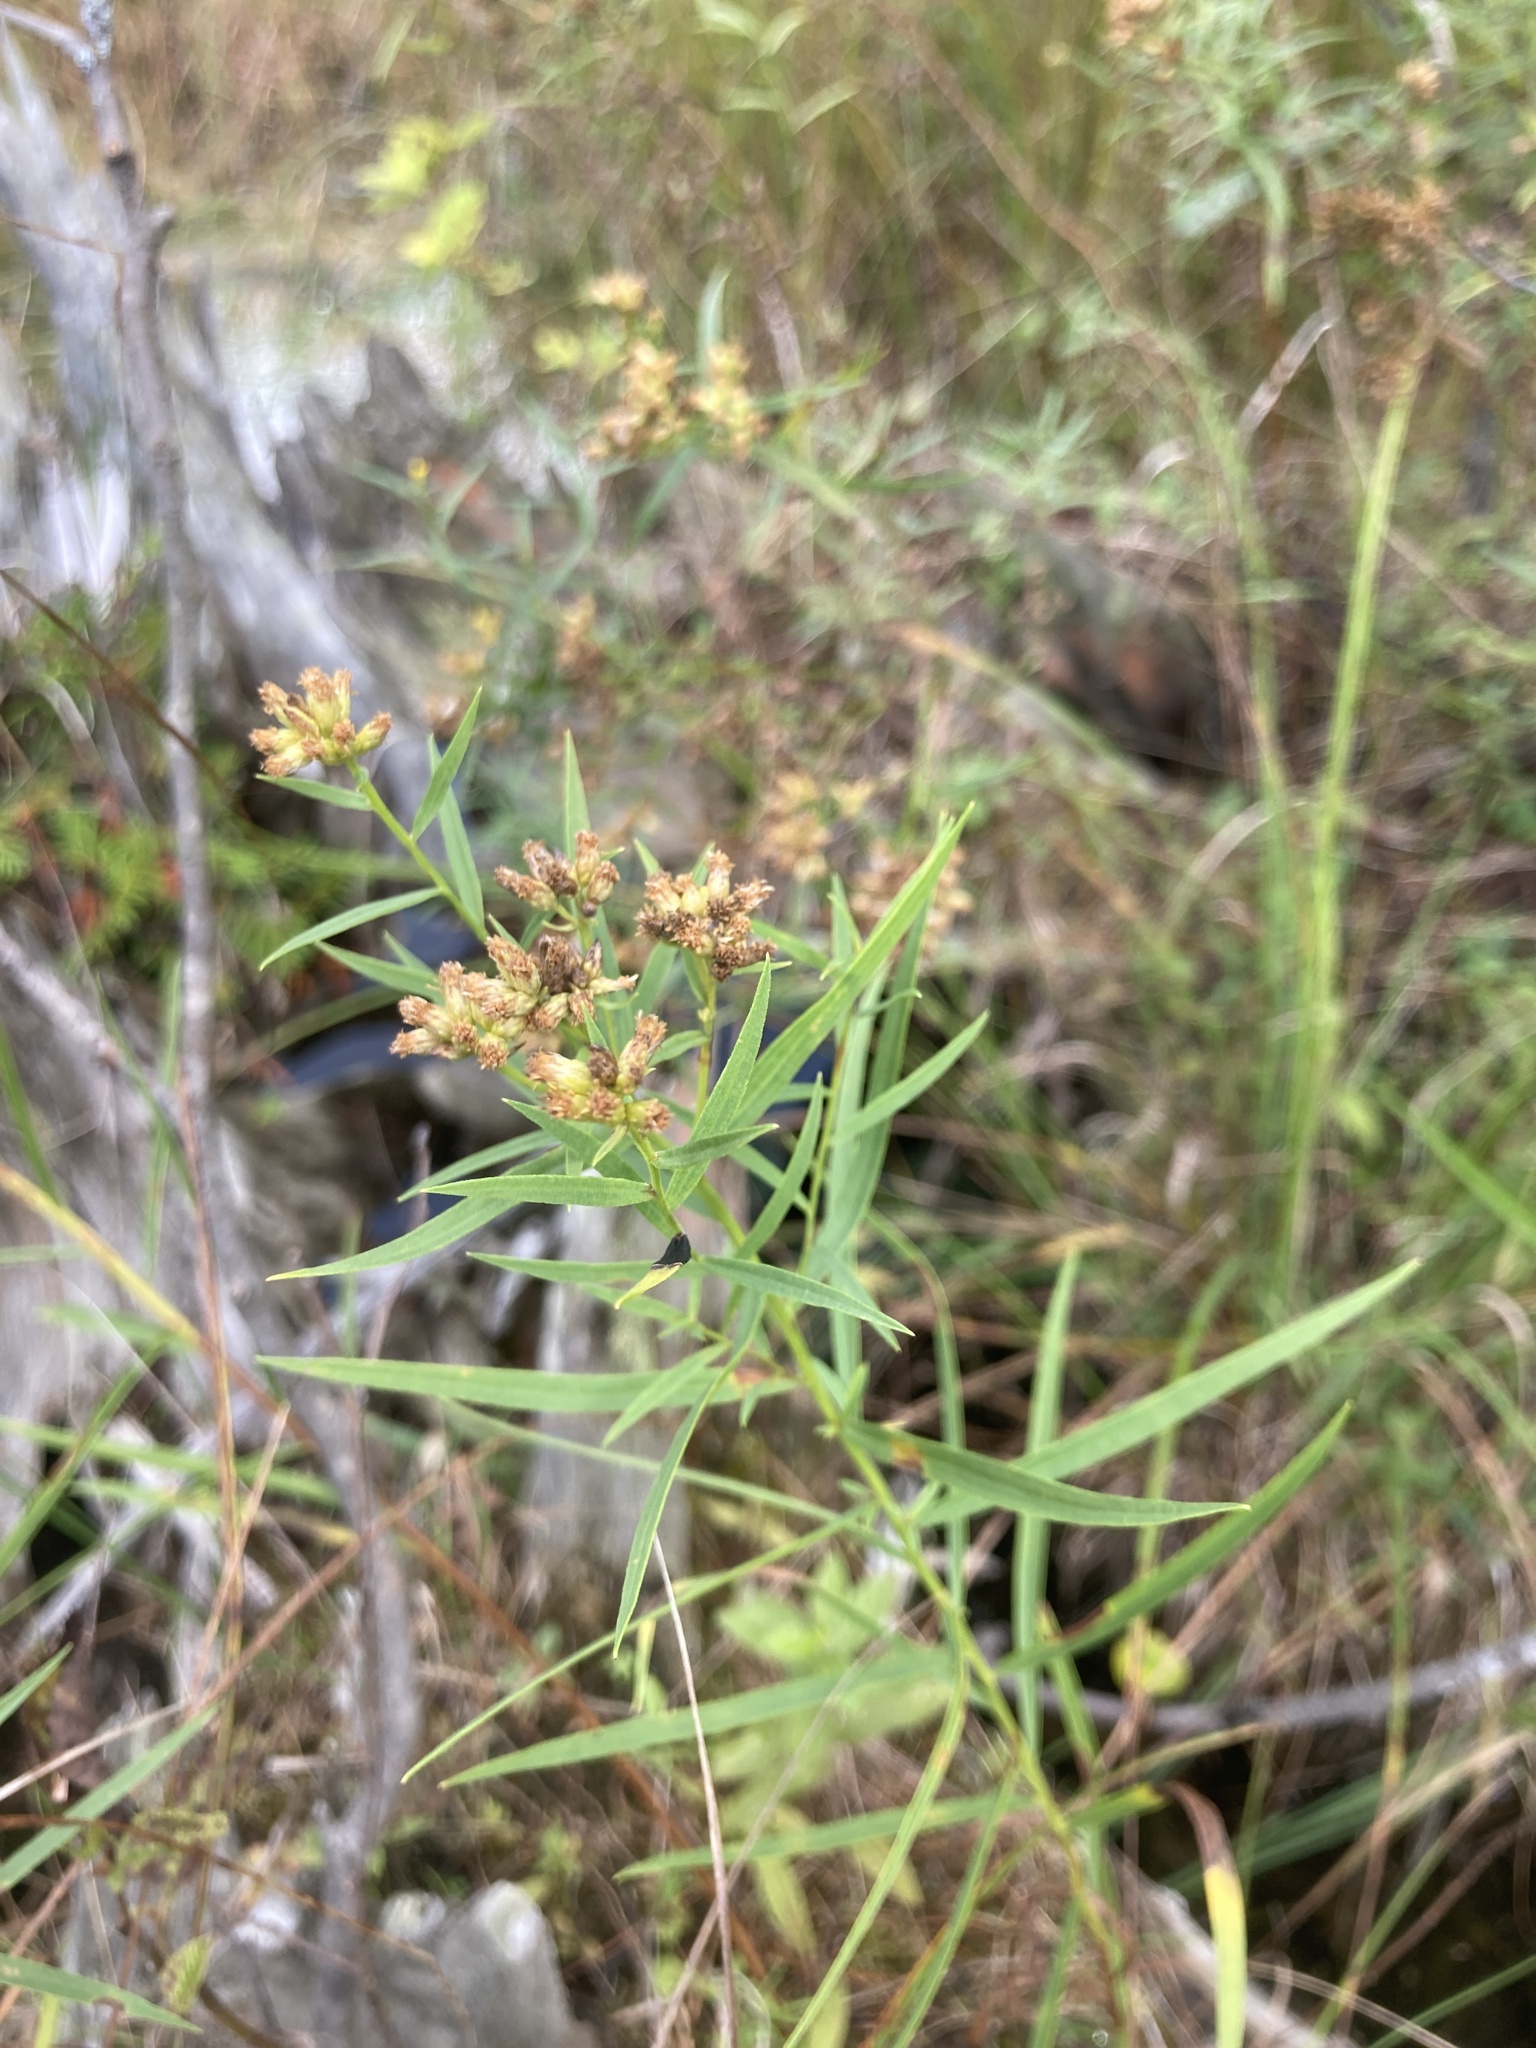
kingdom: Plantae
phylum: Tracheophyta
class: Magnoliopsida
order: Asterales
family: Asteraceae
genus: Euthamia
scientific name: Euthamia graminifolia
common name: Common goldentop
